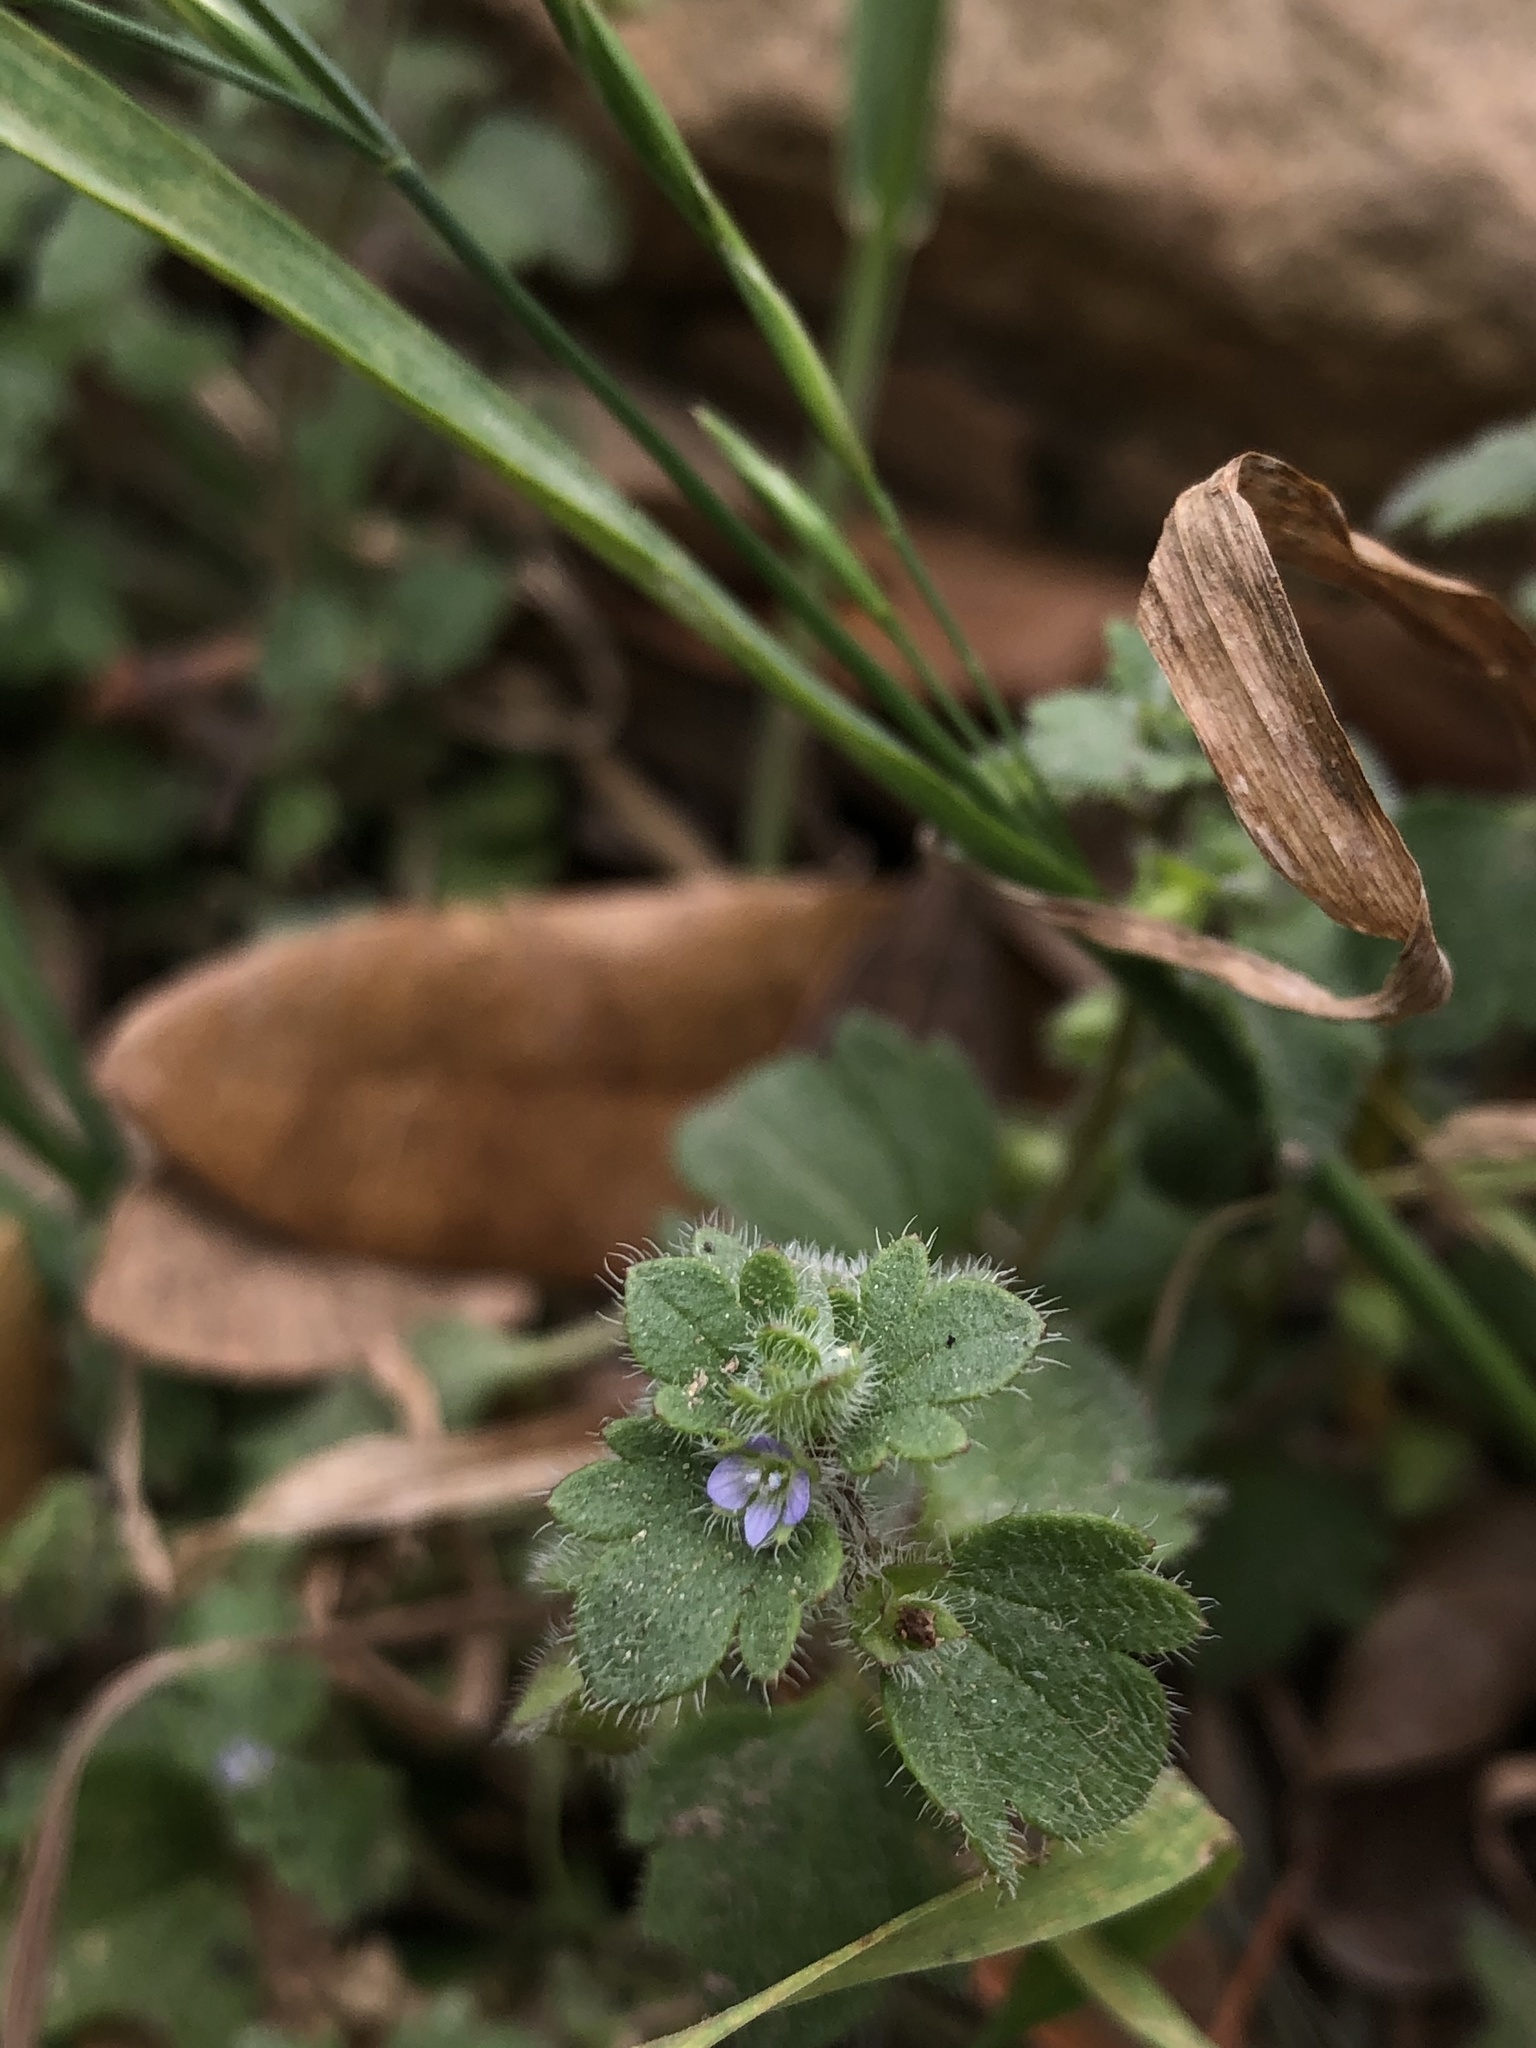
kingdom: Plantae
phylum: Tracheophyta
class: Magnoliopsida
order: Lamiales
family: Plantaginaceae
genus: Veronica
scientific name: Veronica hederifolia
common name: Ivy-leaved speedwell
